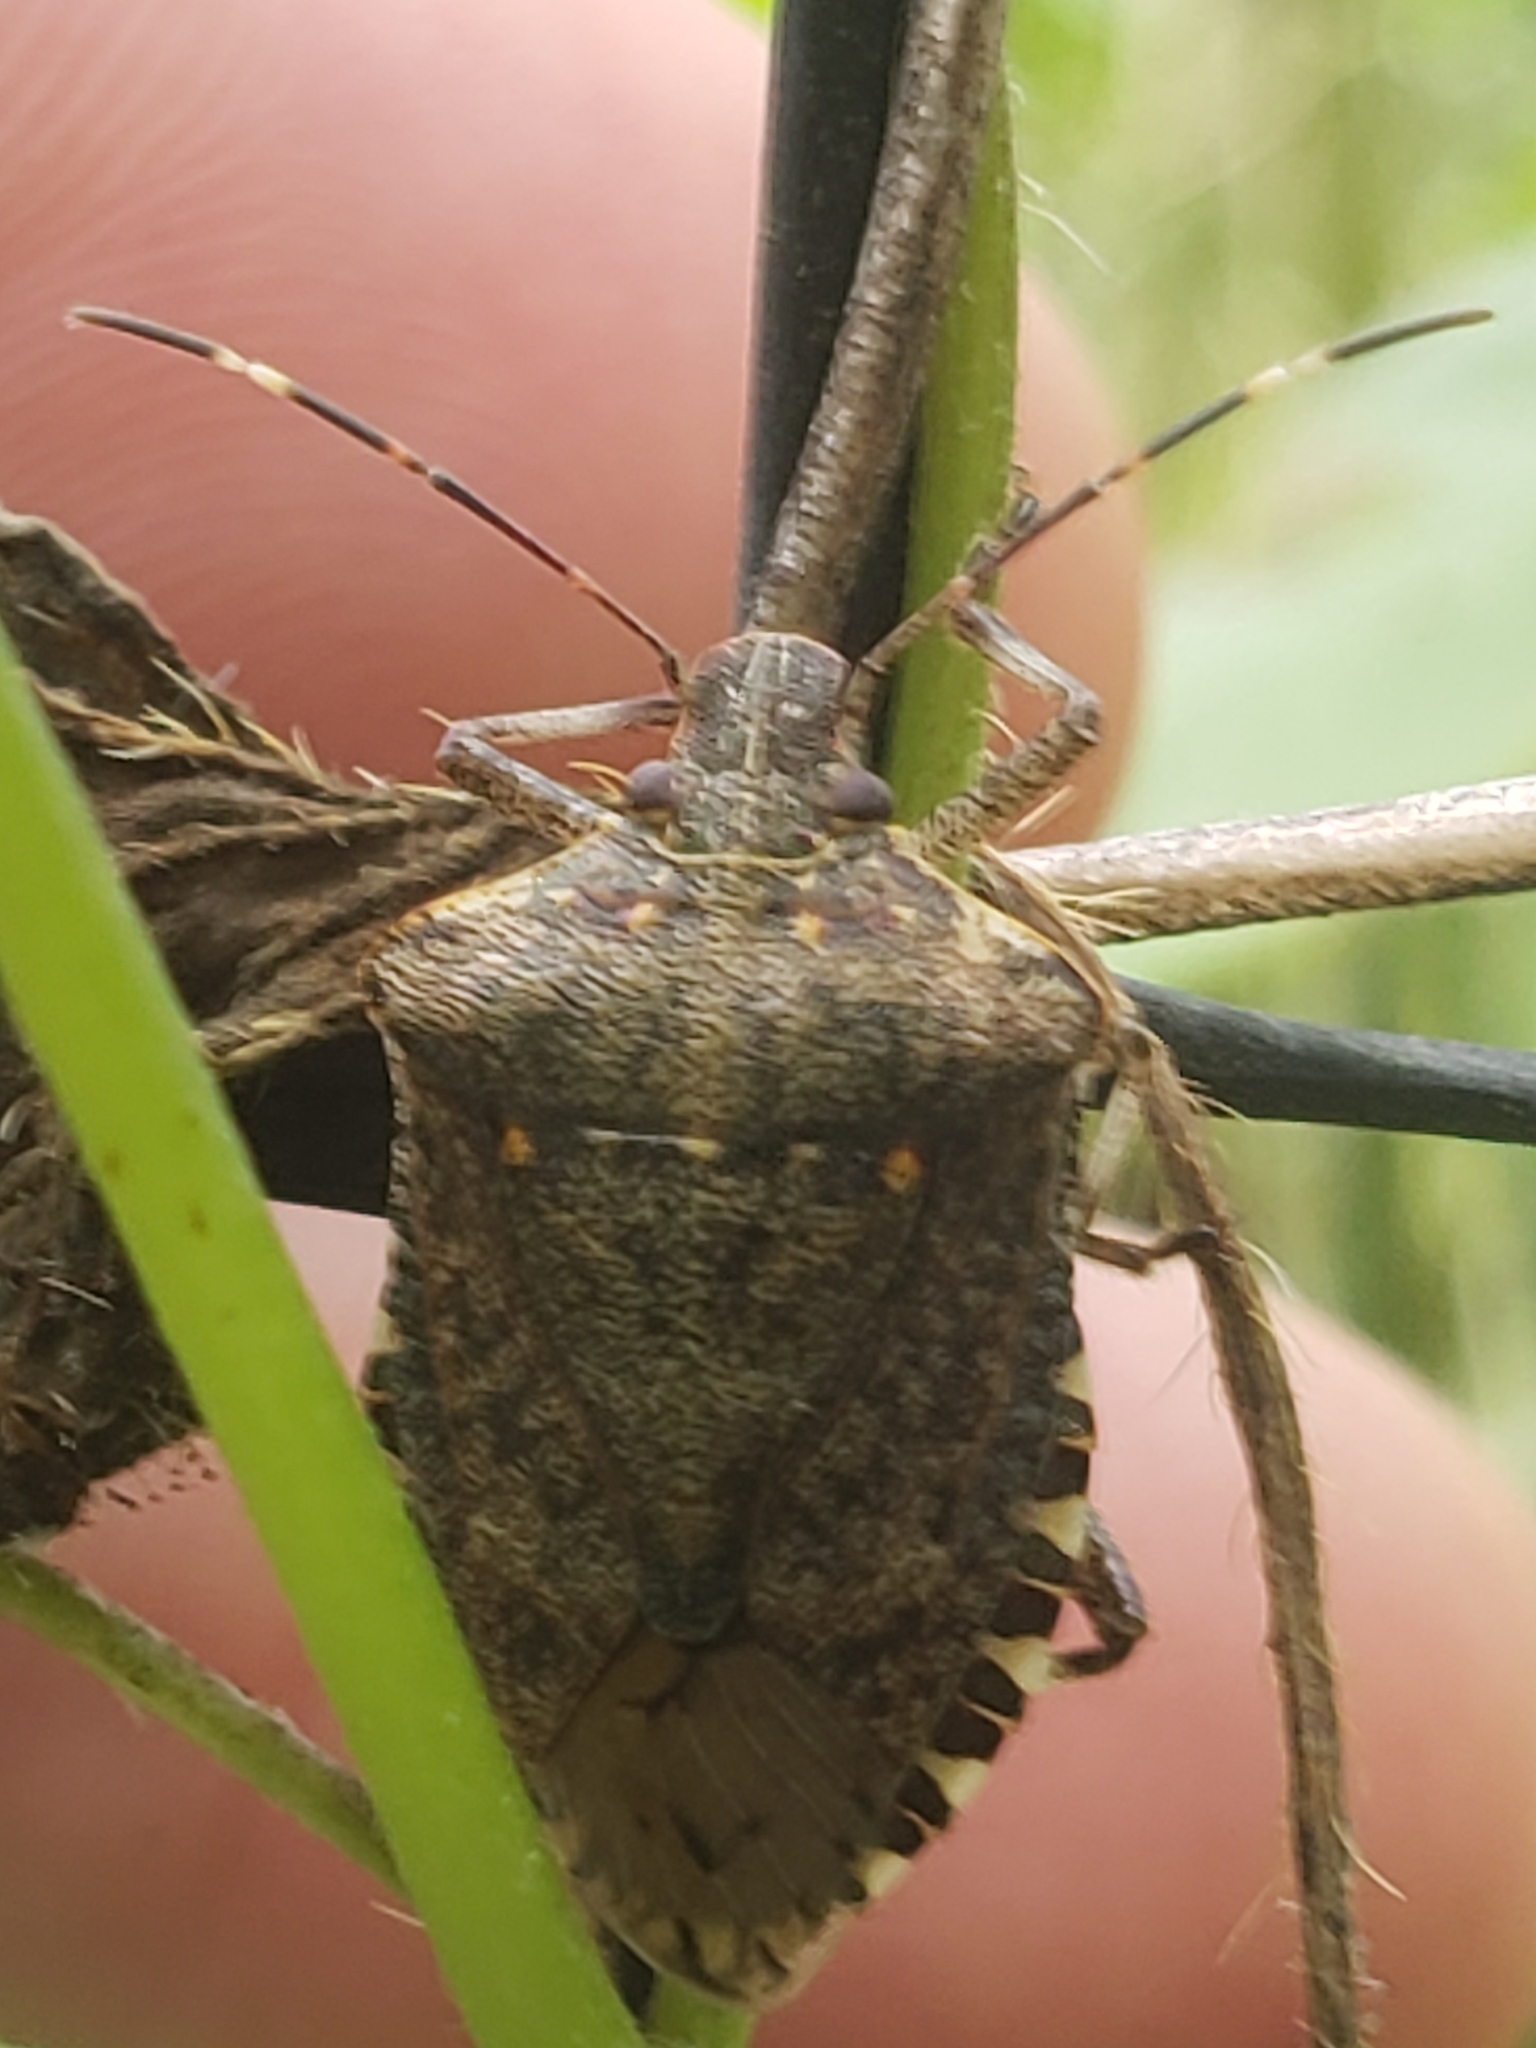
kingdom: Animalia
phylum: Arthropoda
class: Insecta
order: Hemiptera
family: Pentatomidae
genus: Halyomorpha
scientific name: Halyomorpha halys
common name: Brown marmorated stink bug
